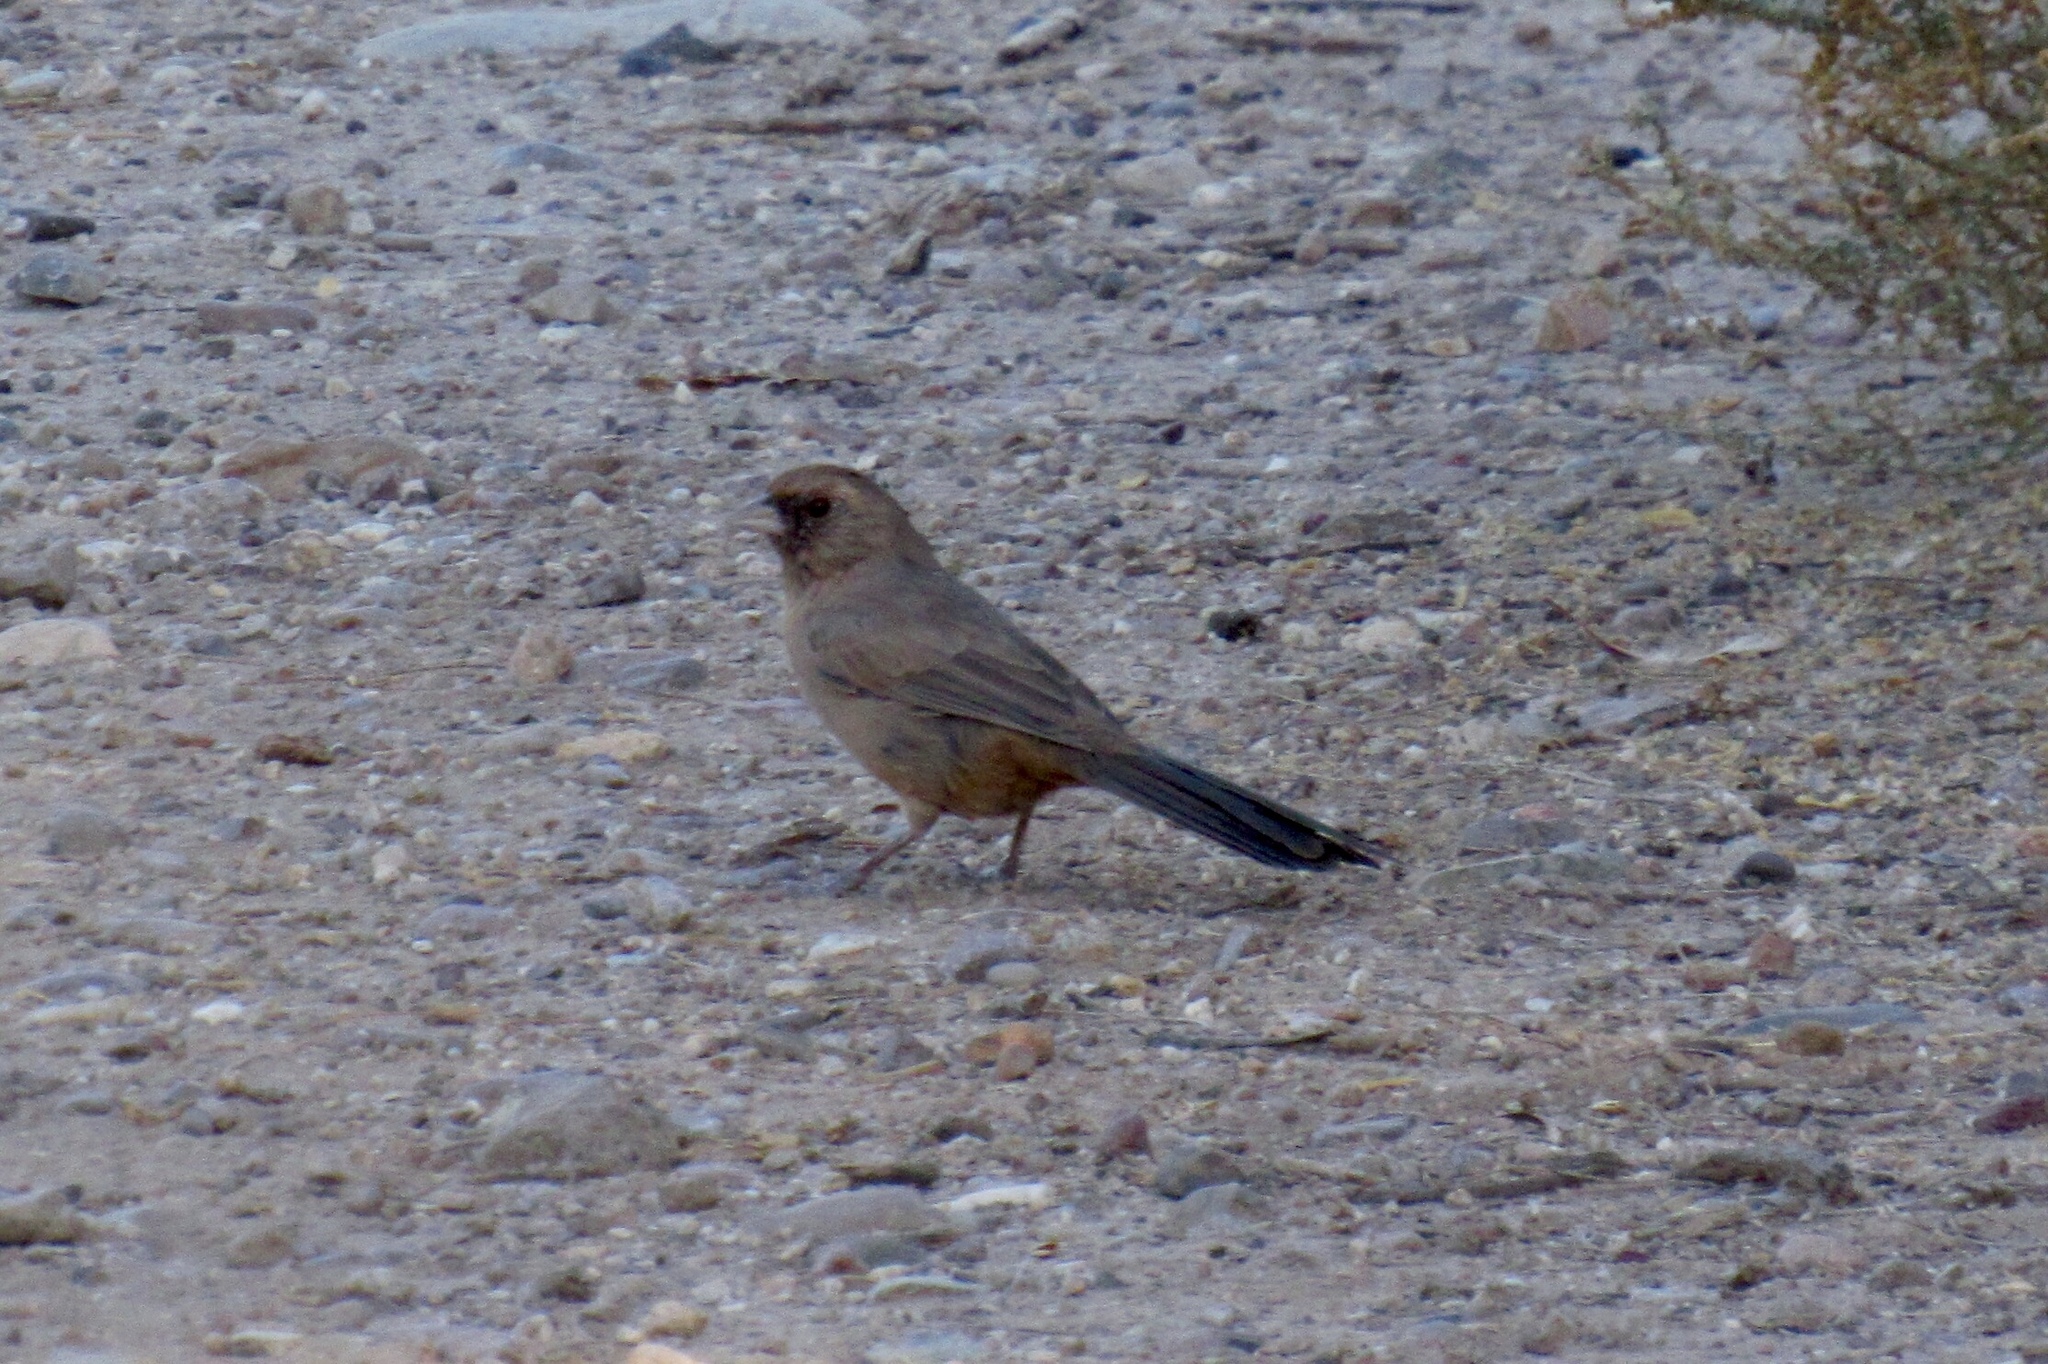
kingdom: Animalia
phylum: Chordata
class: Aves
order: Passeriformes
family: Passerellidae
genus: Melozone
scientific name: Melozone aberti
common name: Abert's towhee
